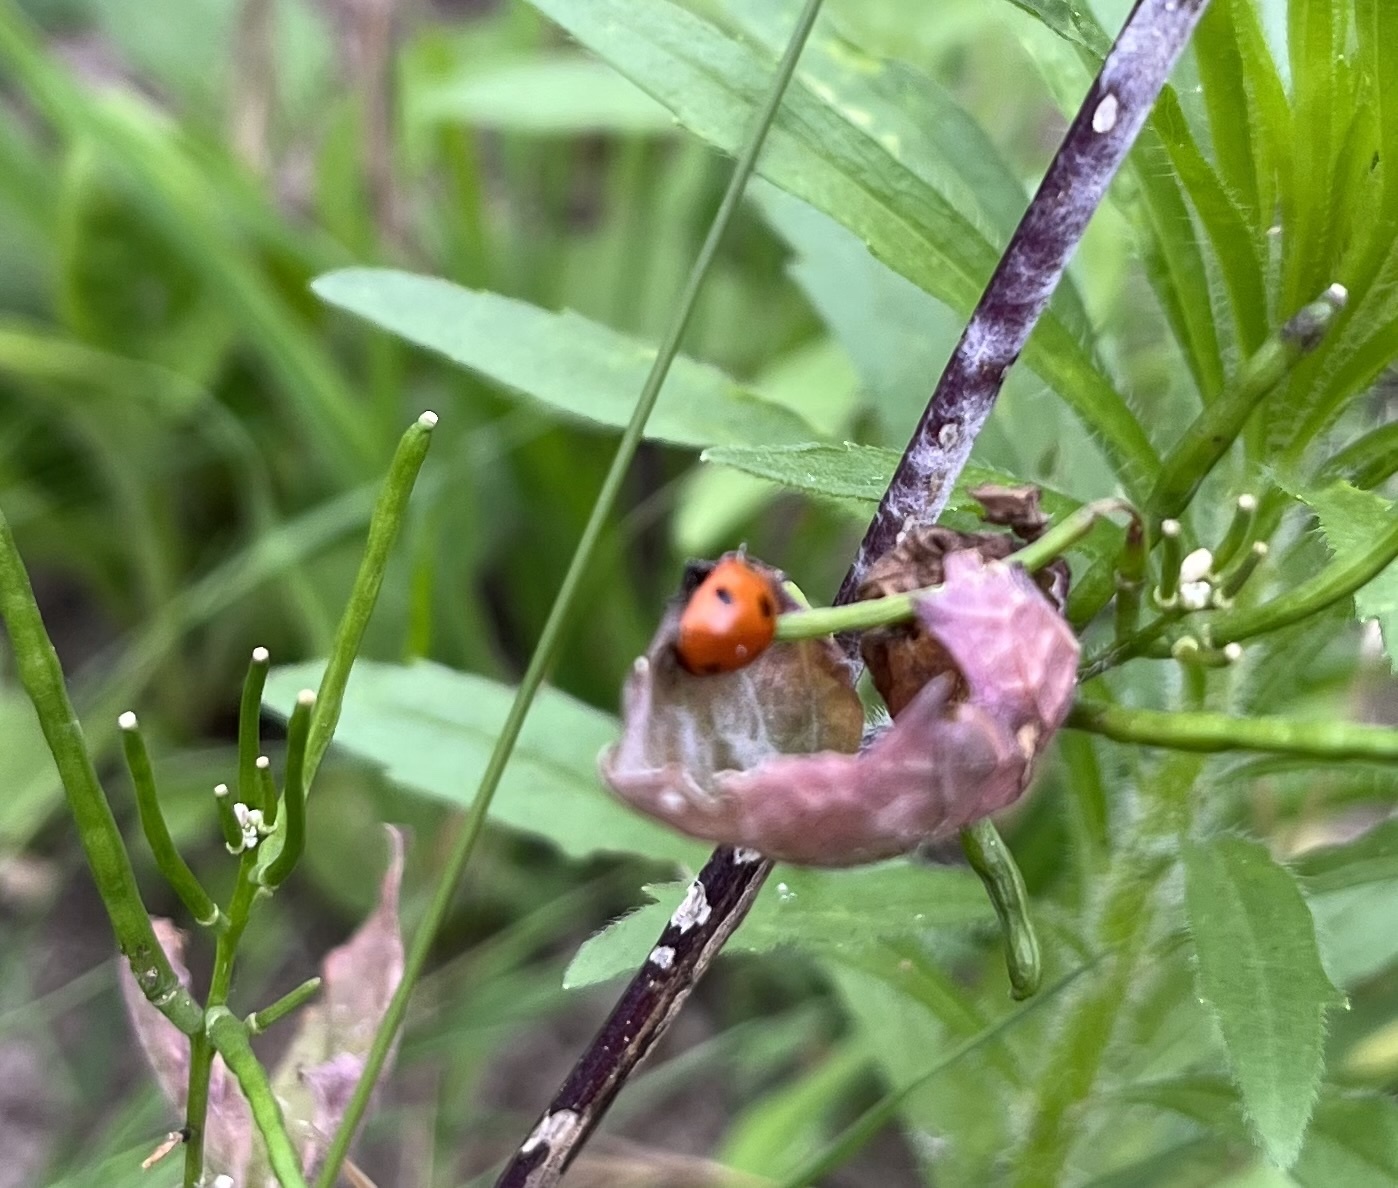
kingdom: Animalia
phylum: Arthropoda
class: Insecta
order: Coleoptera
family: Coccinellidae
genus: Coccinella
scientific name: Coccinella septempunctata
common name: Sevenspotted lady beetle
